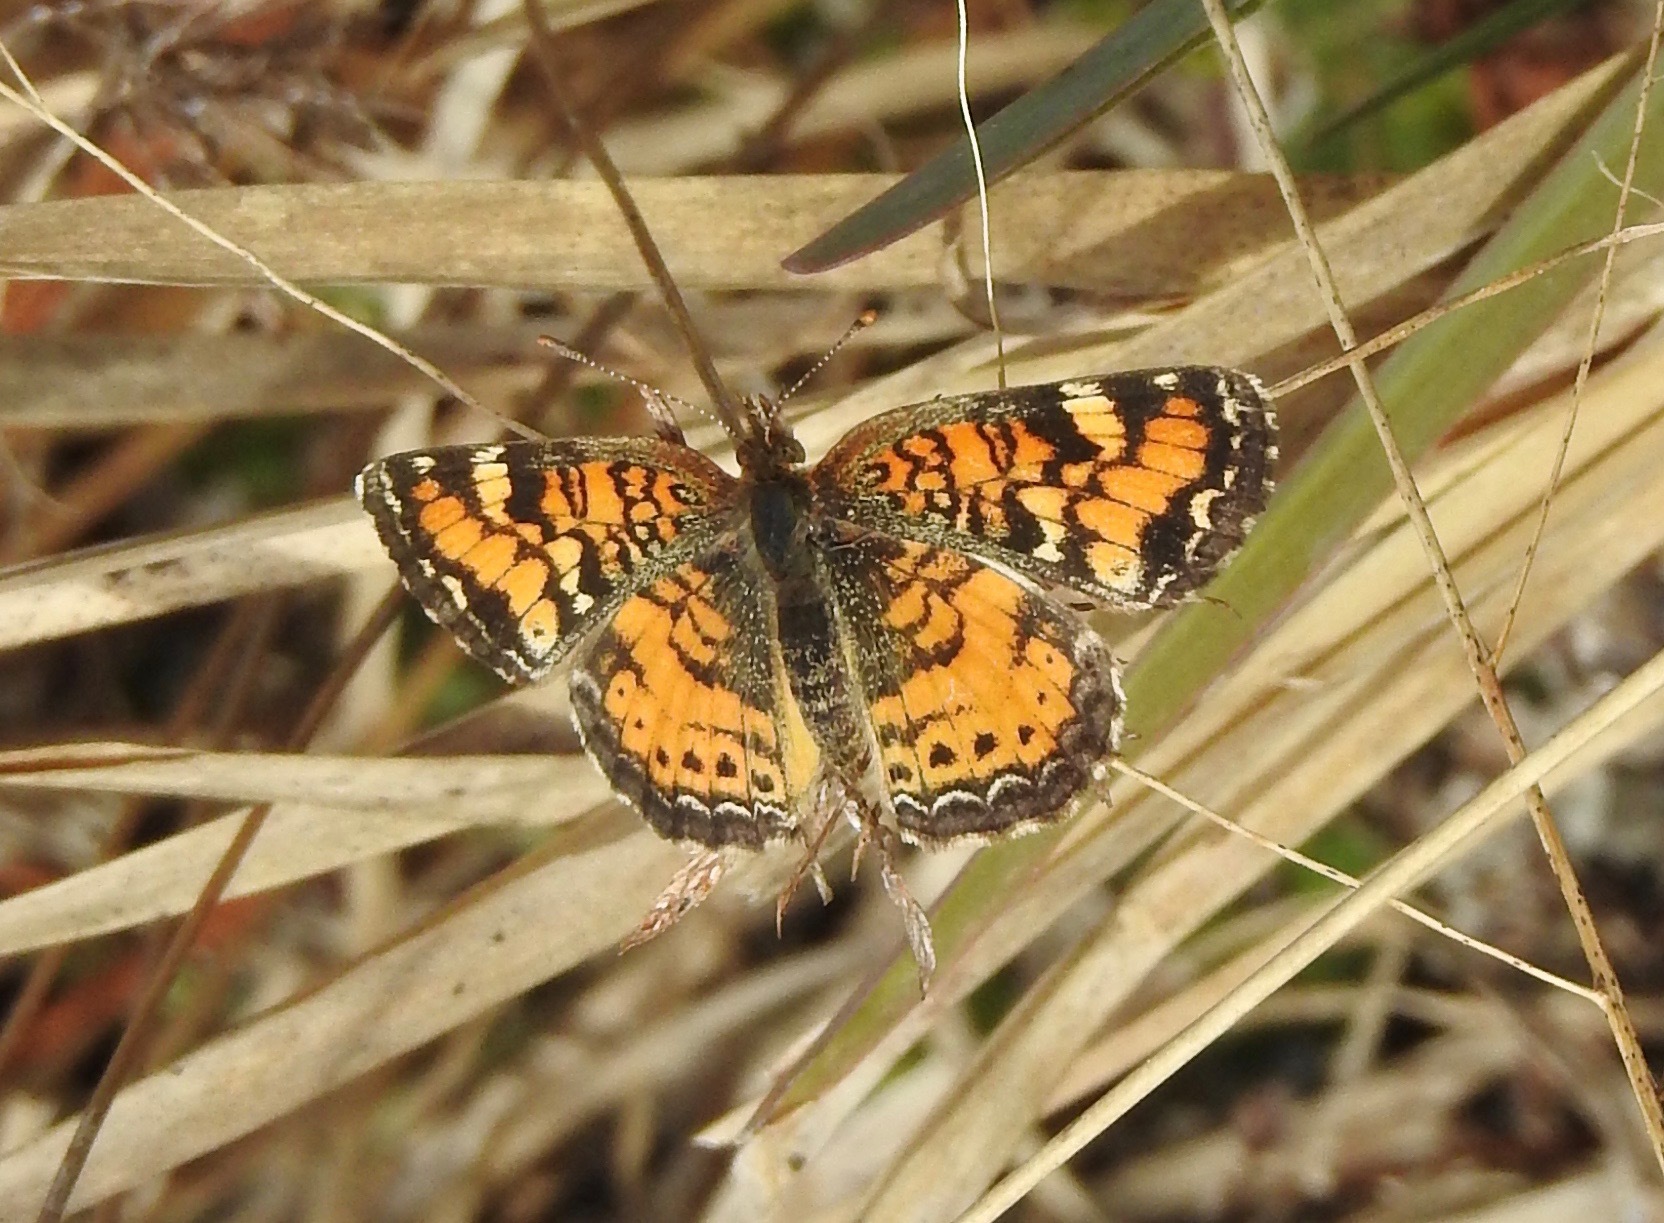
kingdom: Animalia
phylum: Arthropoda
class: Insecta
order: Lepidoptera
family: Nymphalidae
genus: Phyciodes
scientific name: Phyciodes tharos
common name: Pearl crescent
